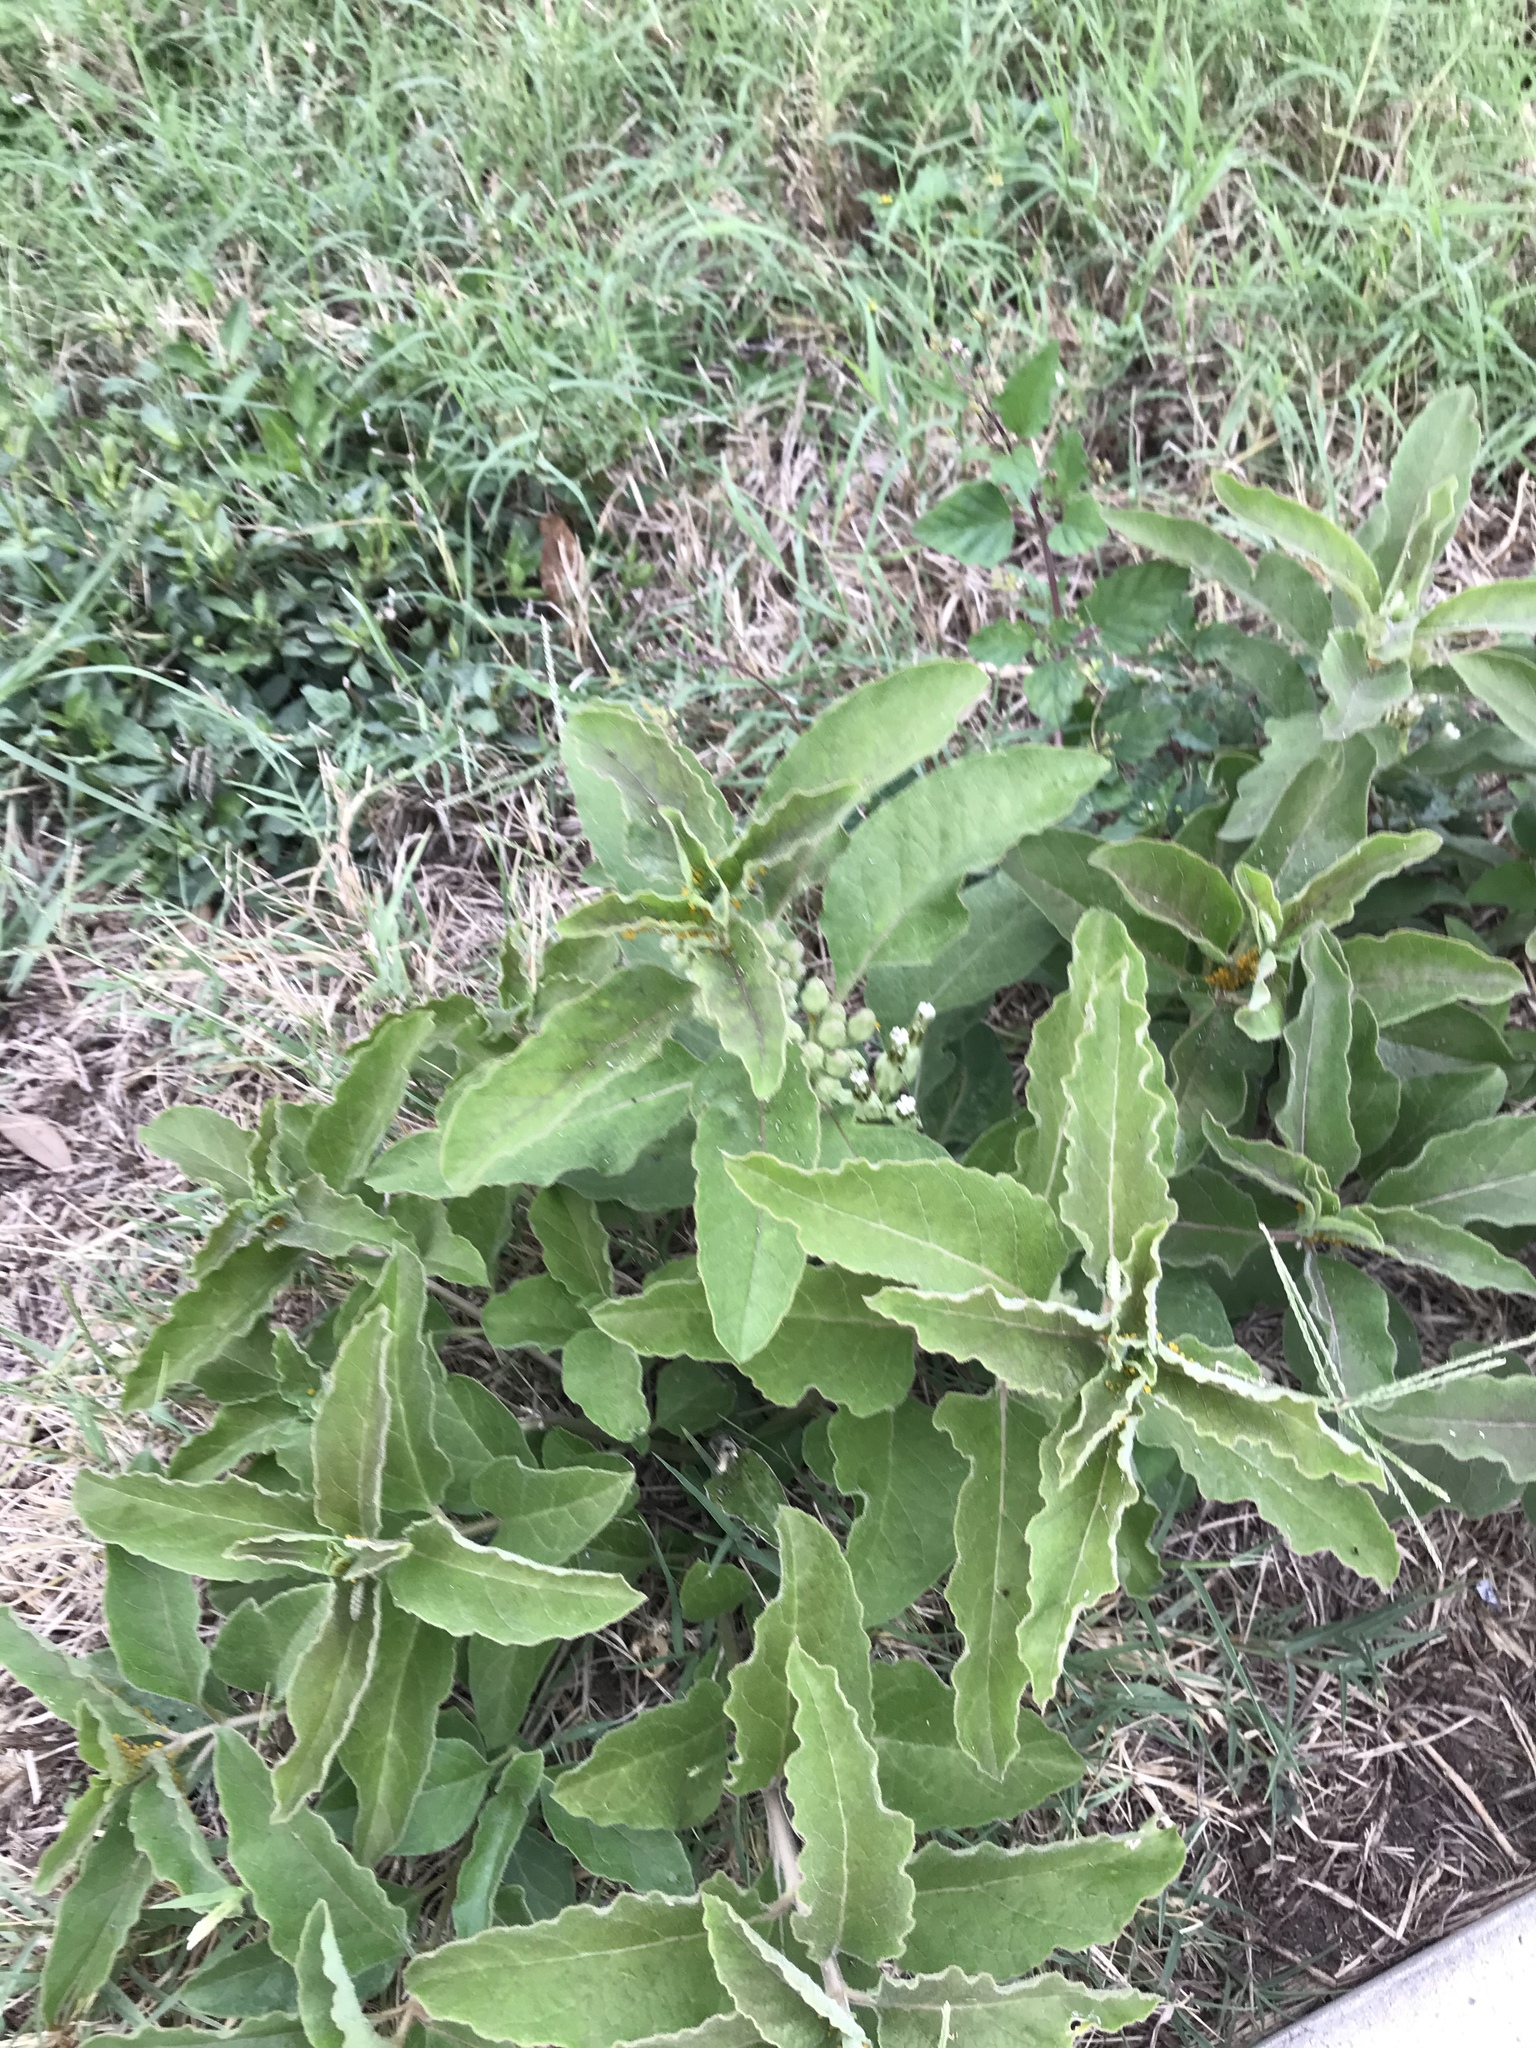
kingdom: Plantae
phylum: Tracheophyta
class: Magnoliopsida
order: Gentianales
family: Apocynaceae
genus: Asclepias
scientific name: Asclepias oenotheroides
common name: Zizotes milkweed
